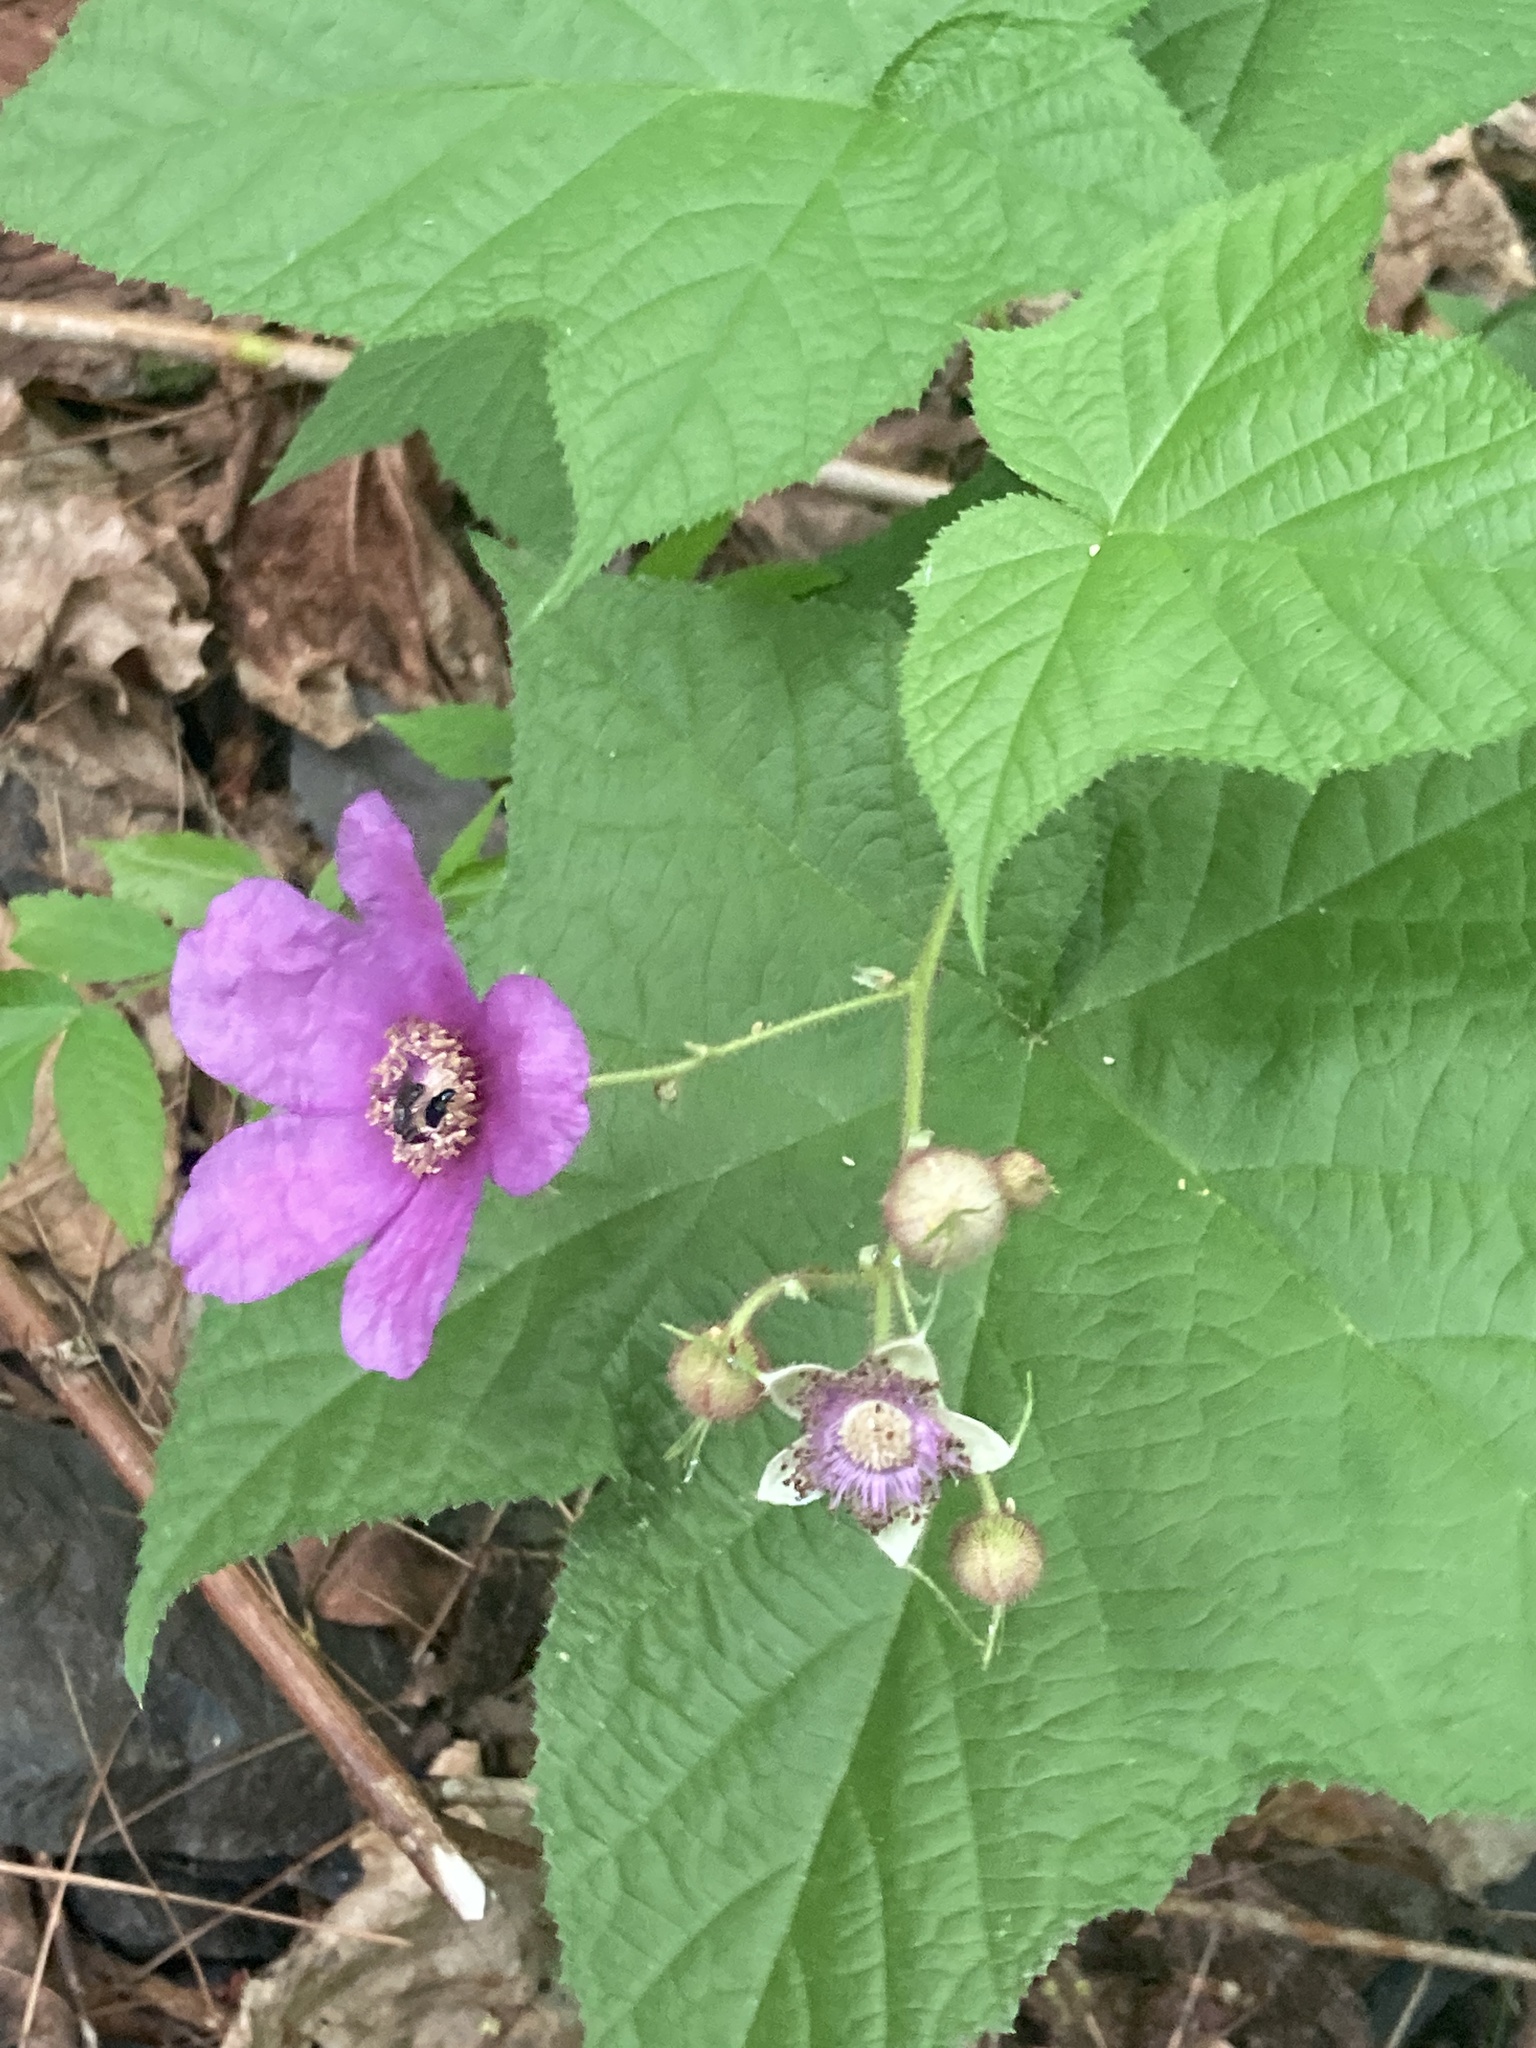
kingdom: Plantae
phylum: Tracheophyta
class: Magnoliopsida
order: Rosales
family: Rosaceae
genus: Rubus
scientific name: Rubus odoratus
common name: Purple-flowered raspberry
